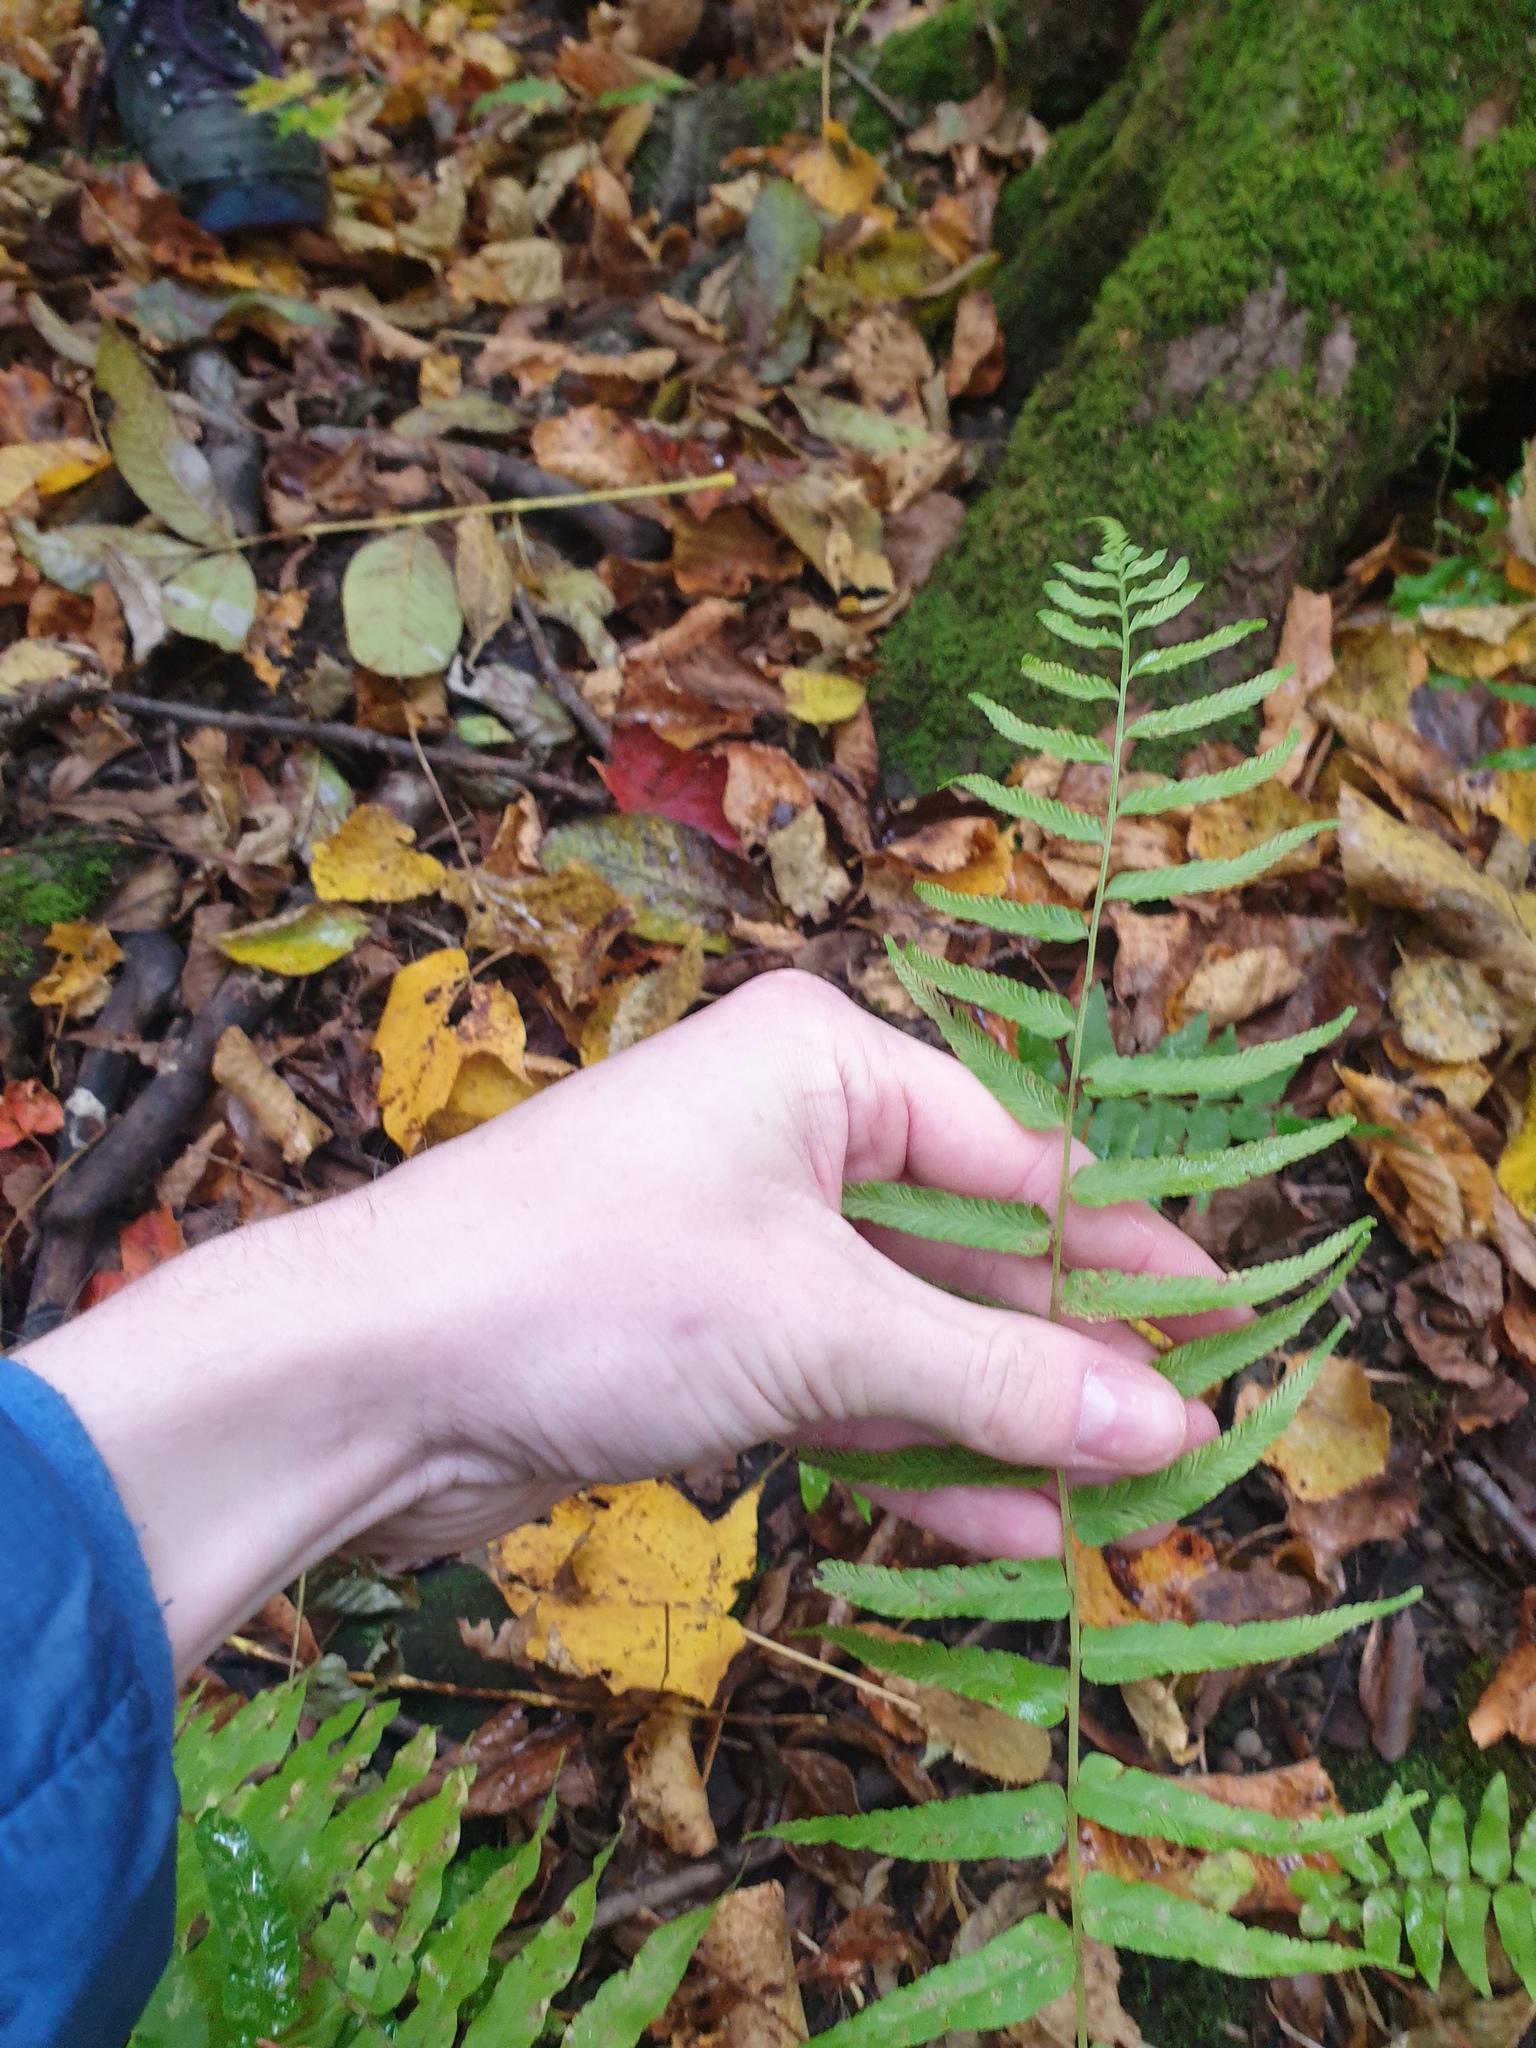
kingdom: Plantae
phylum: Tracheophyta
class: Polypodiopsida
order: Polypodiales
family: Diplaziopsidaceae
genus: Homalosorus
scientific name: Homalosorus pycnocarpos
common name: Glade fern
